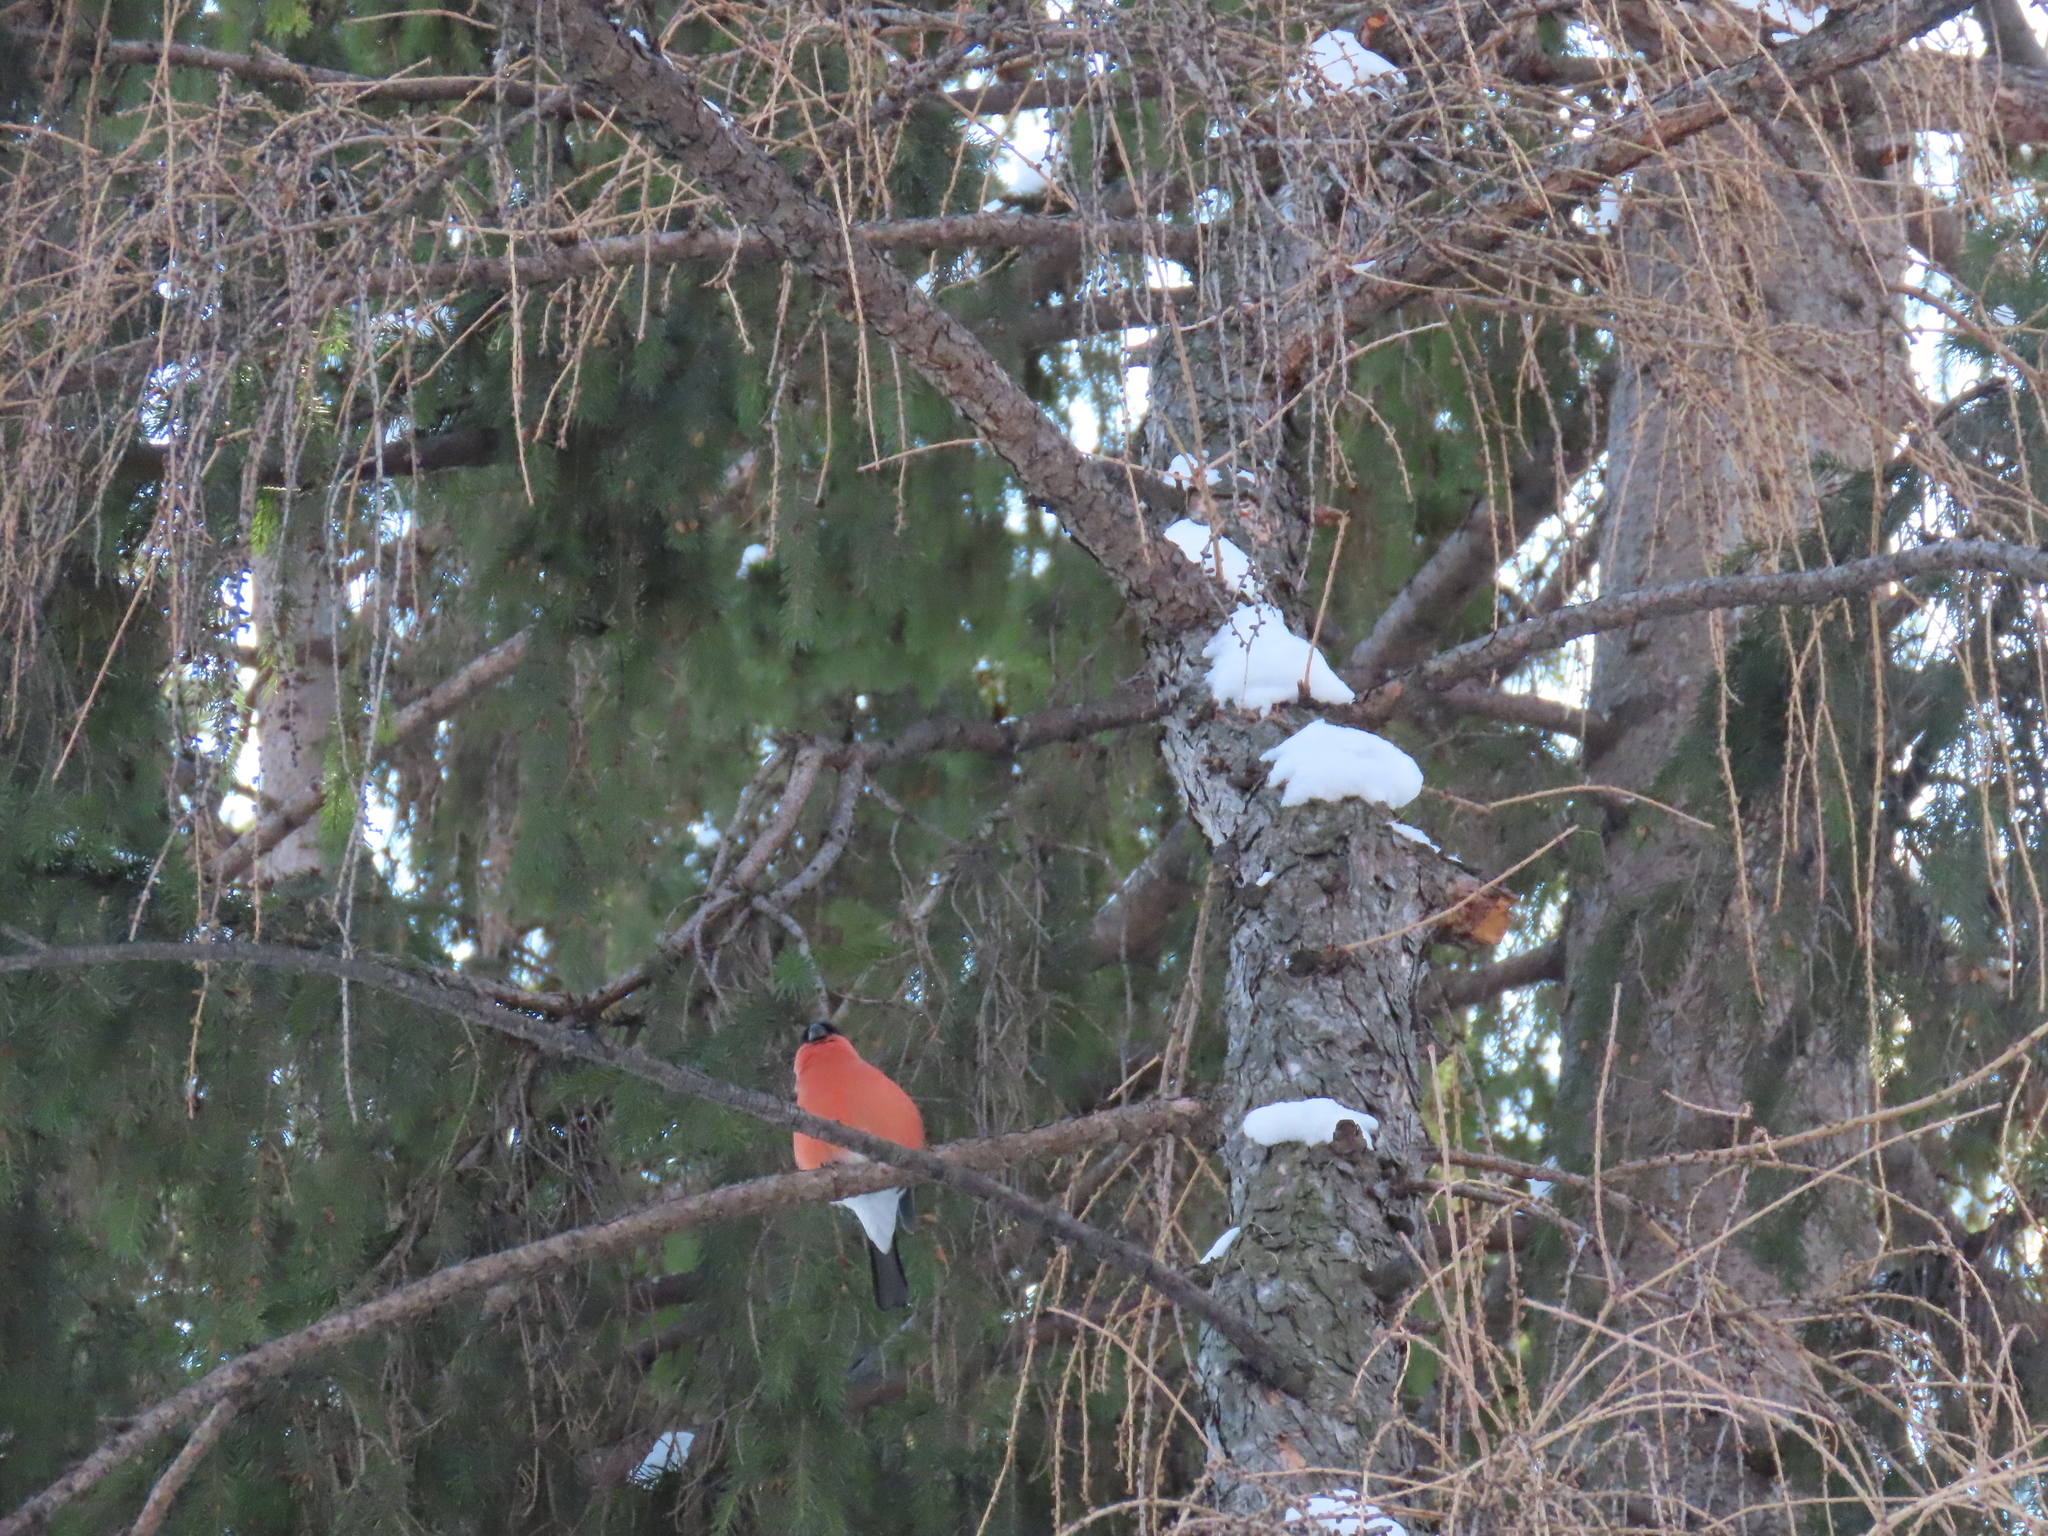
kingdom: Animalia
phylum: Chordata
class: Aves
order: Passeriformes
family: Fringillidae
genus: Pyrrhula
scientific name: Pyrrhula pyrrhula
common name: Eurasian bullfinch
